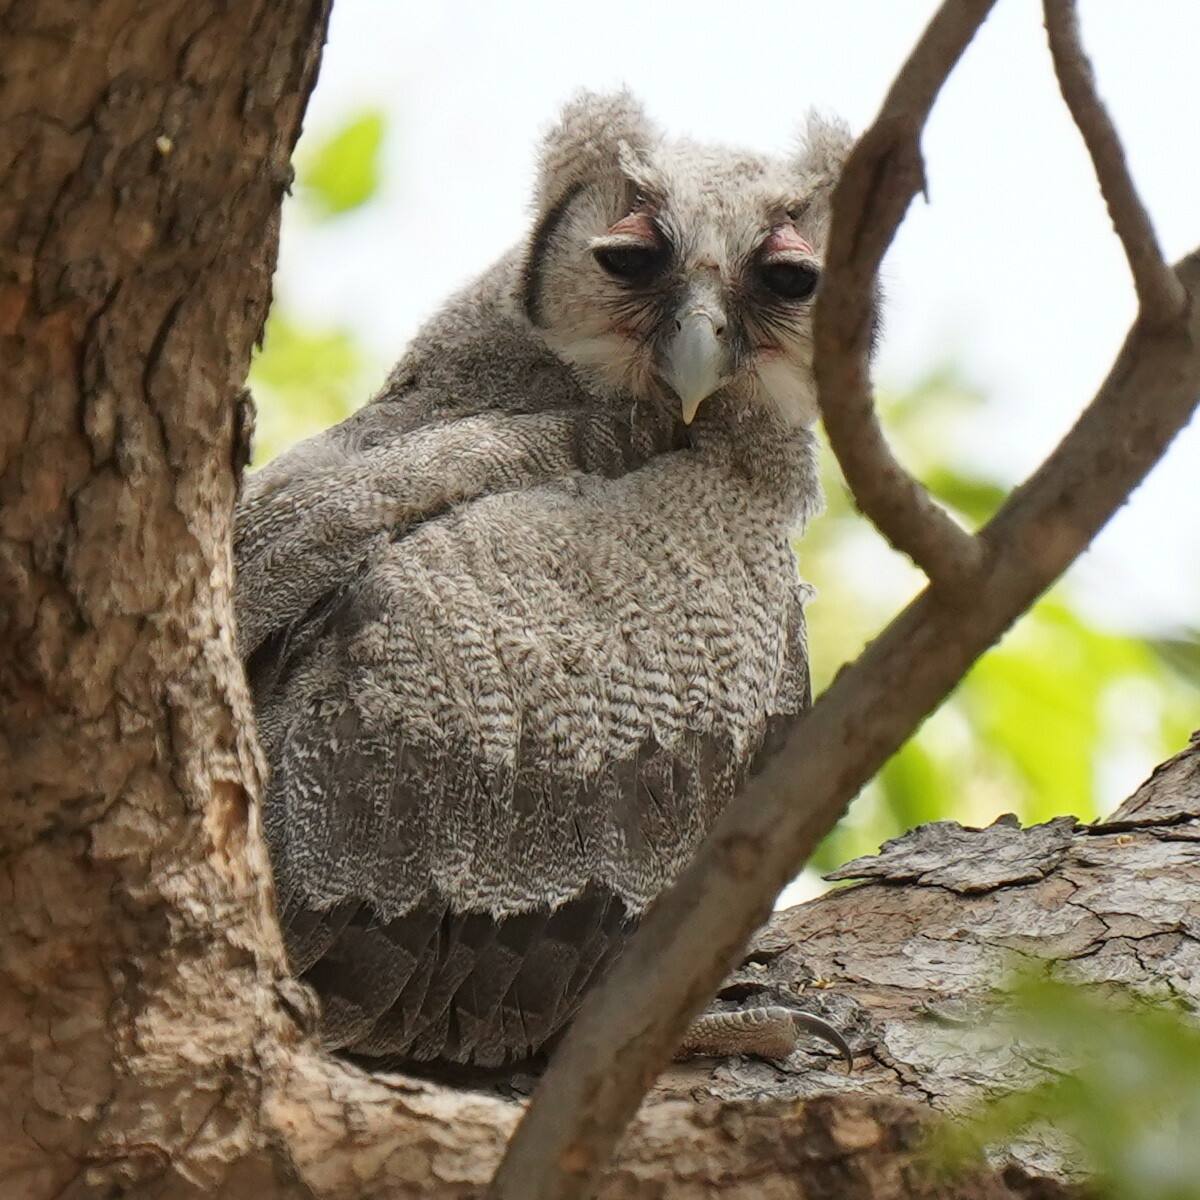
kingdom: Animalia
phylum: Chordata
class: Aves
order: Strigiformes
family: Strigidae
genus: Bubo
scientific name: Bubo lacteus
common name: Verreaux's eagle-owl
